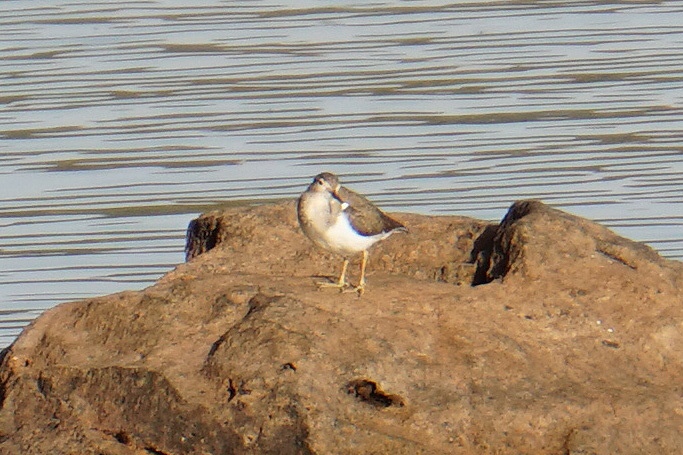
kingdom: Animalia
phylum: Chordata
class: Aves
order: Charadriiformes
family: Scolopacidae
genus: Actitis
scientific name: Actitis hypoleucos
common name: Common sandpiper
